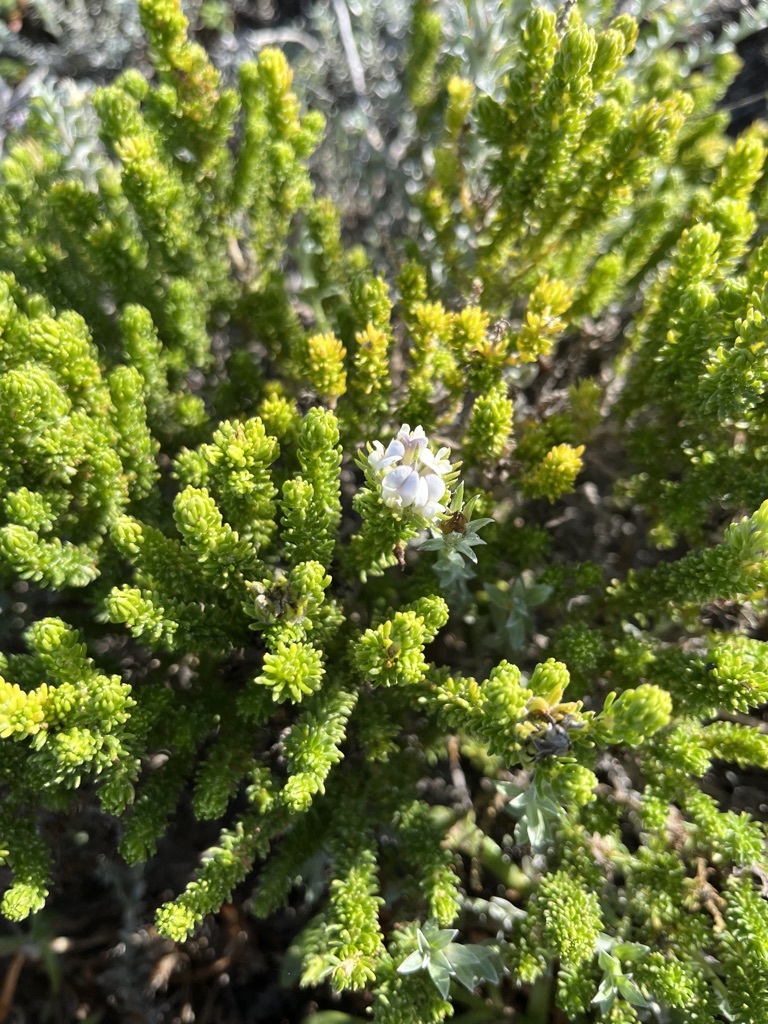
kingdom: Plantae
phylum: Tracheophyta
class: Magnoliopsida
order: Fabales
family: Fabaceae
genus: Aspalathus
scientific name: Aspalathus forbesii
